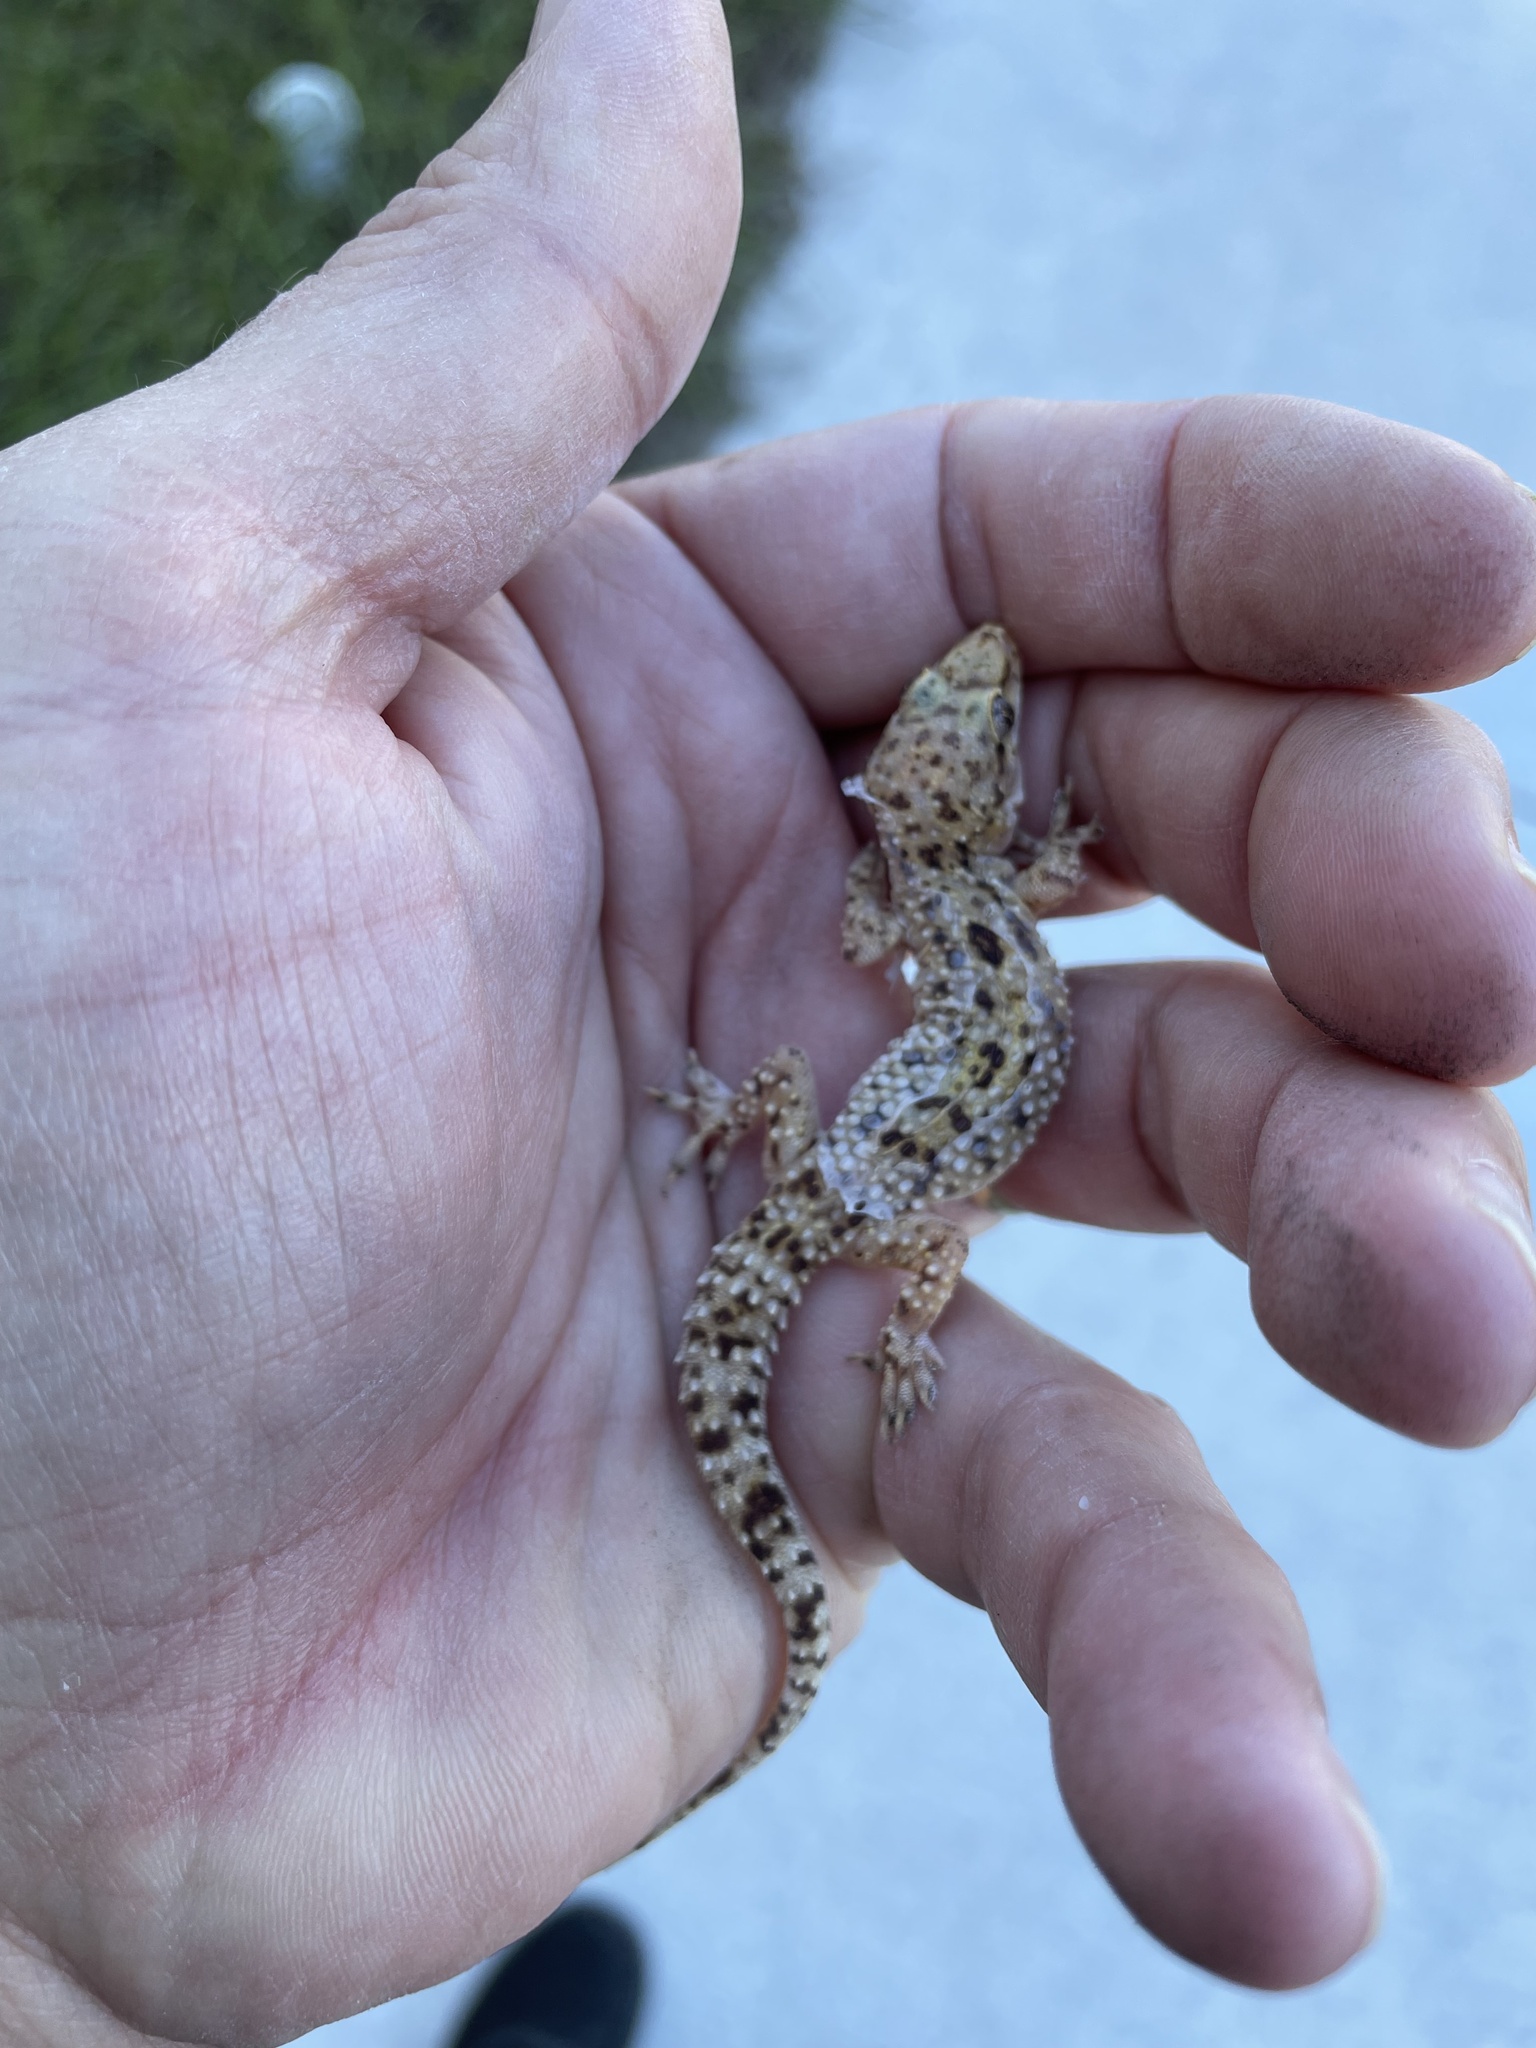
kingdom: Animalia
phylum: Chordata
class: Squamata
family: Gekkonidae
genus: Hemidactylus
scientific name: Hemidactylus turcicus
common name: Turkish gecko
